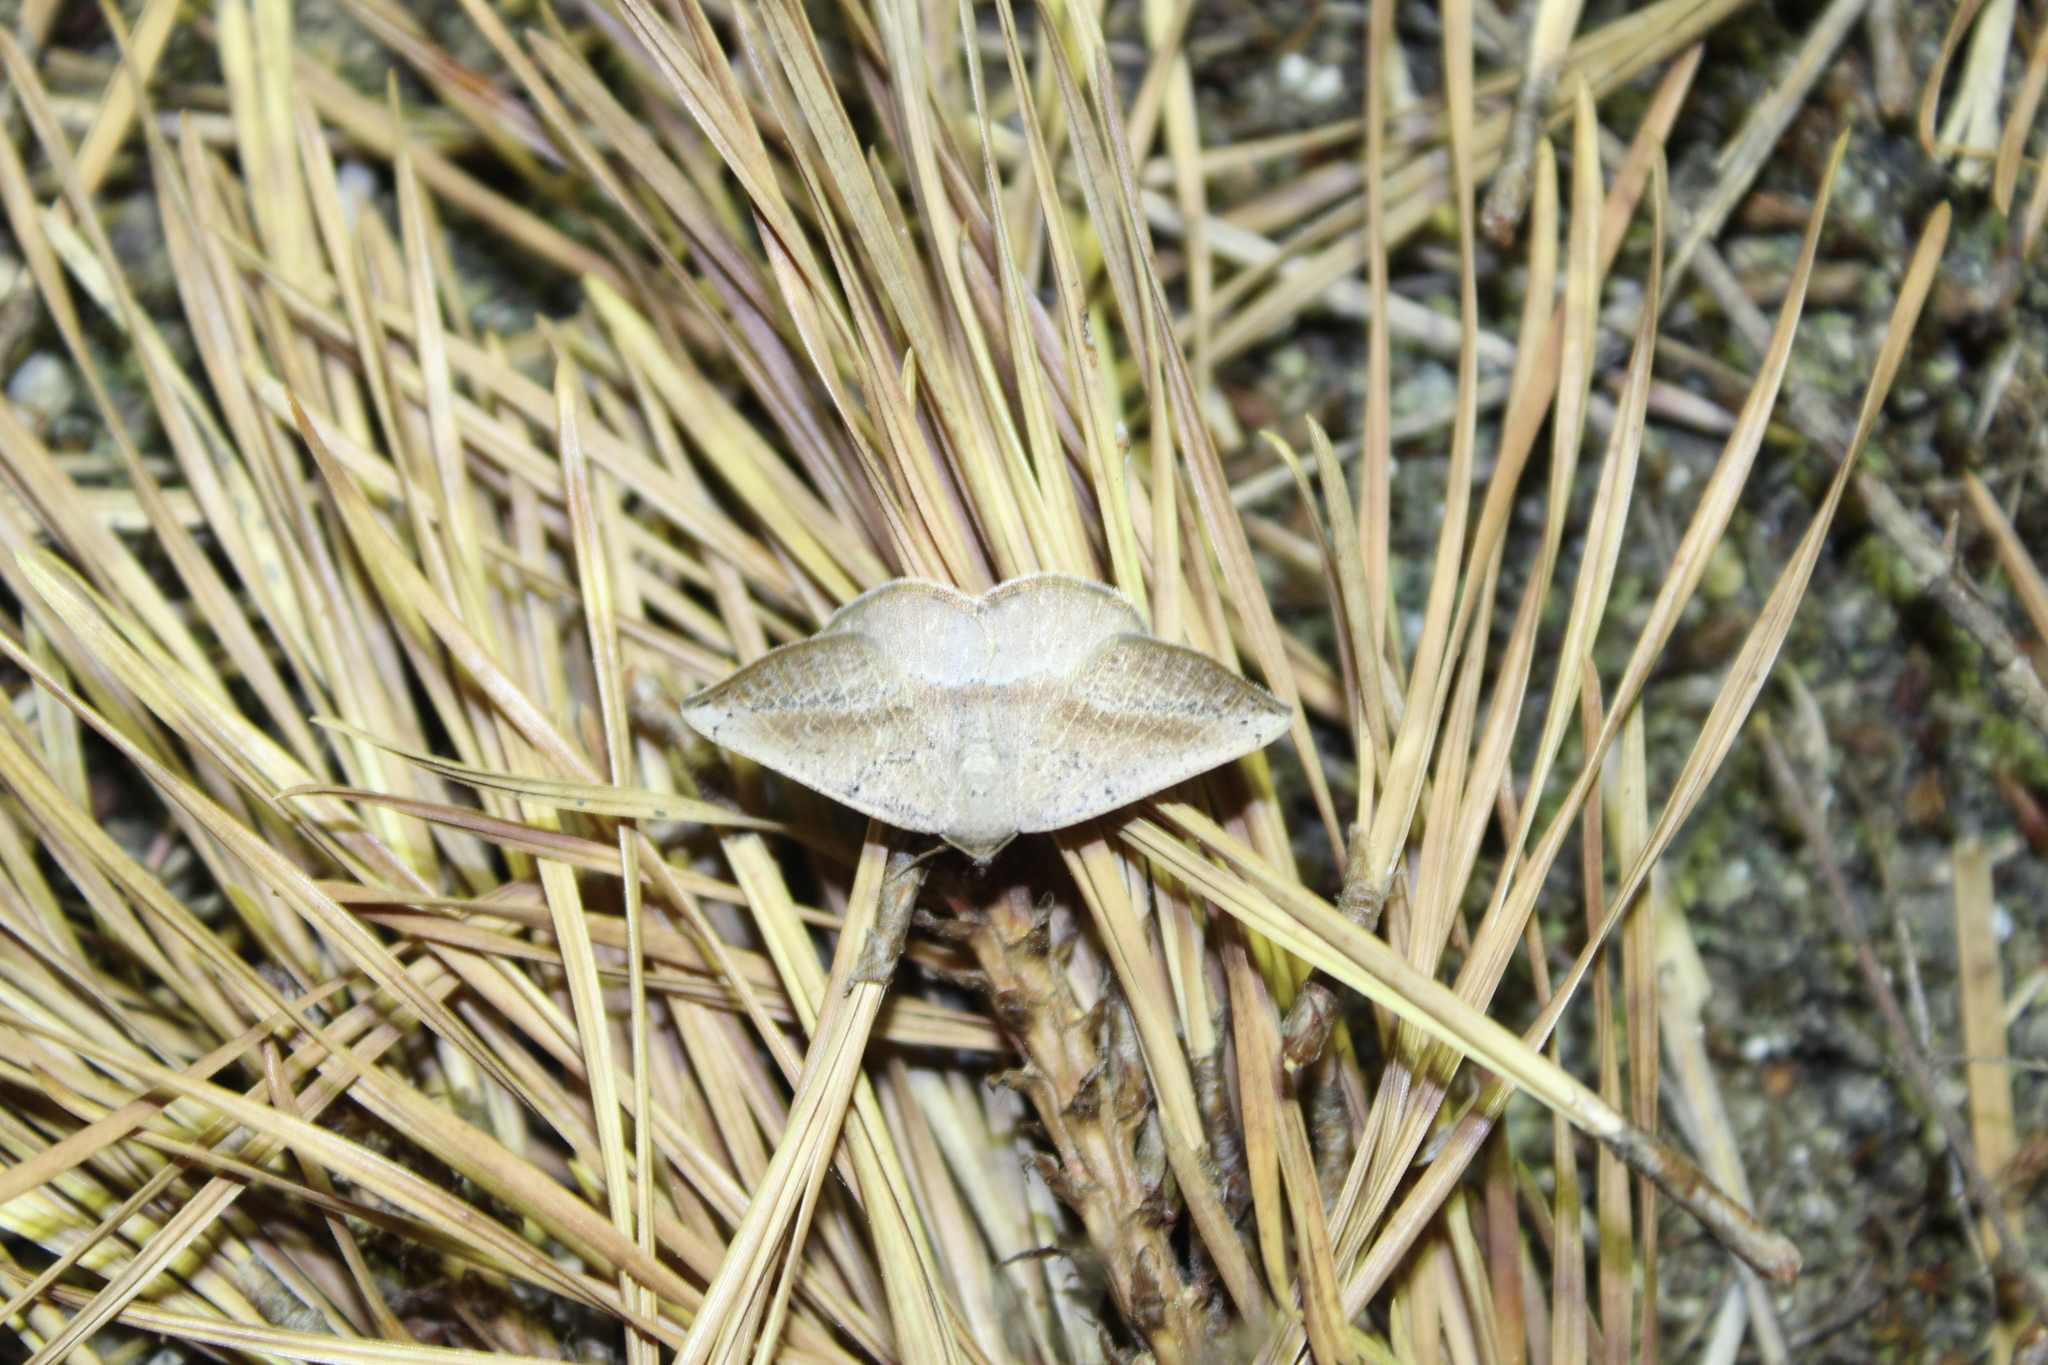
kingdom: Animalia
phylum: Arthropoda
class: Insecta
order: Lepidoptera
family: Geometridae
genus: Tacparia
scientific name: Tacparia atropunctata
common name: Northern pale alder
